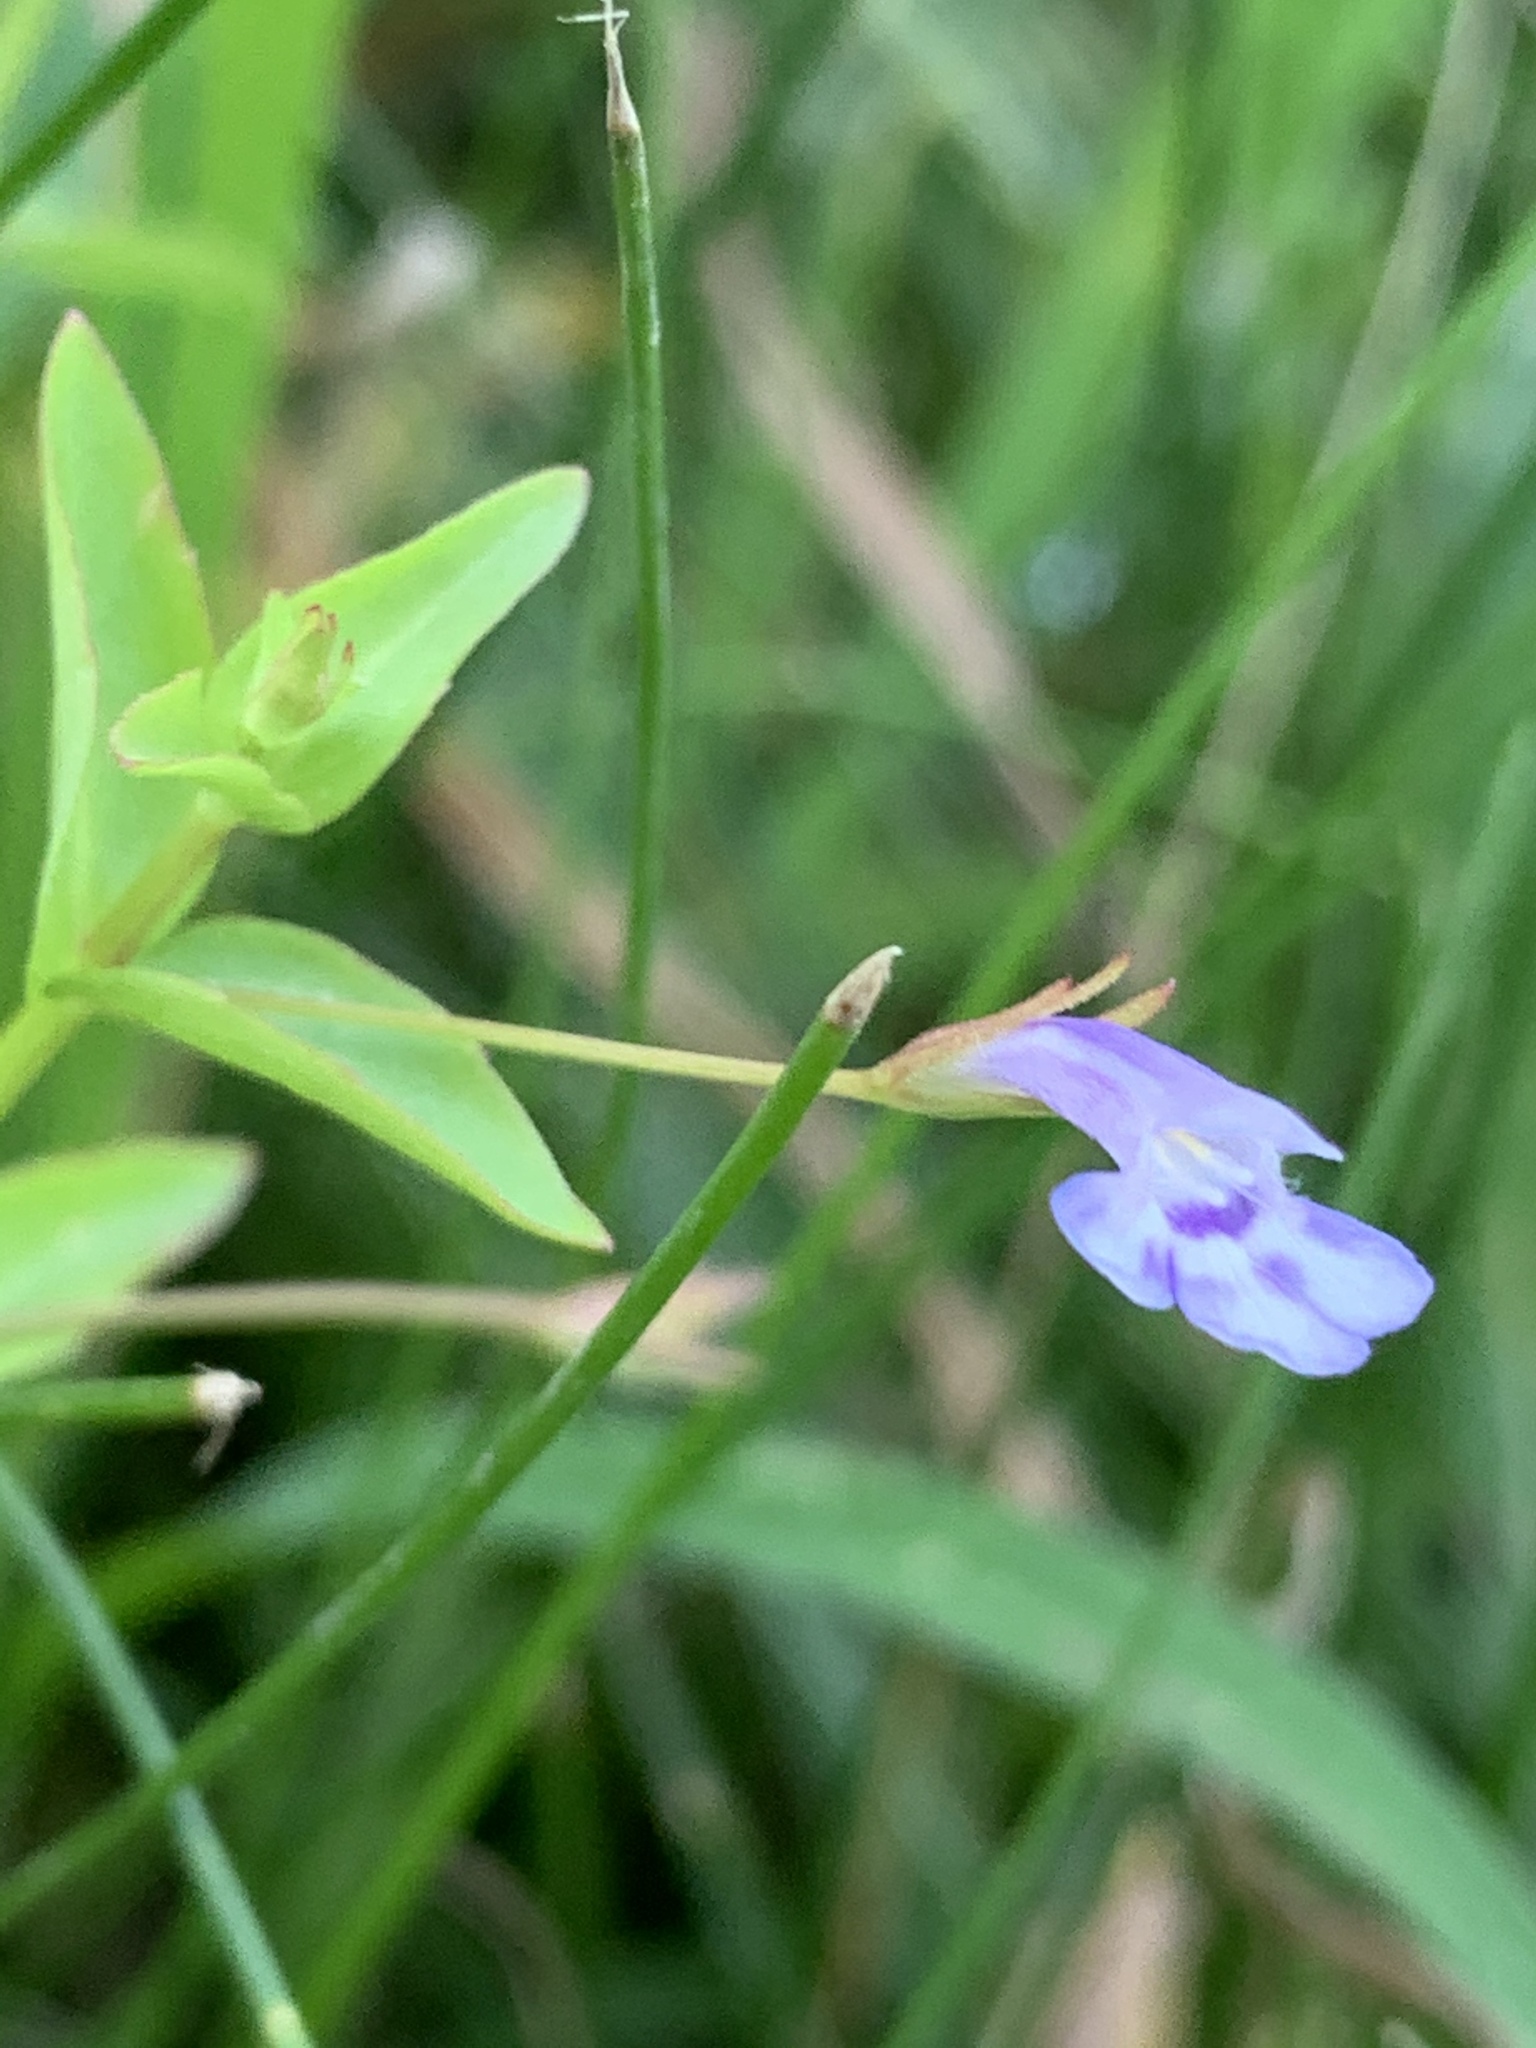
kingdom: Plantae
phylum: Tracheophyta
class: Magnoliopsida
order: Lamiales
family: Linderniaceae
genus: Lindernia
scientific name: Lindernia dubia
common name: Annual false pimpernel
